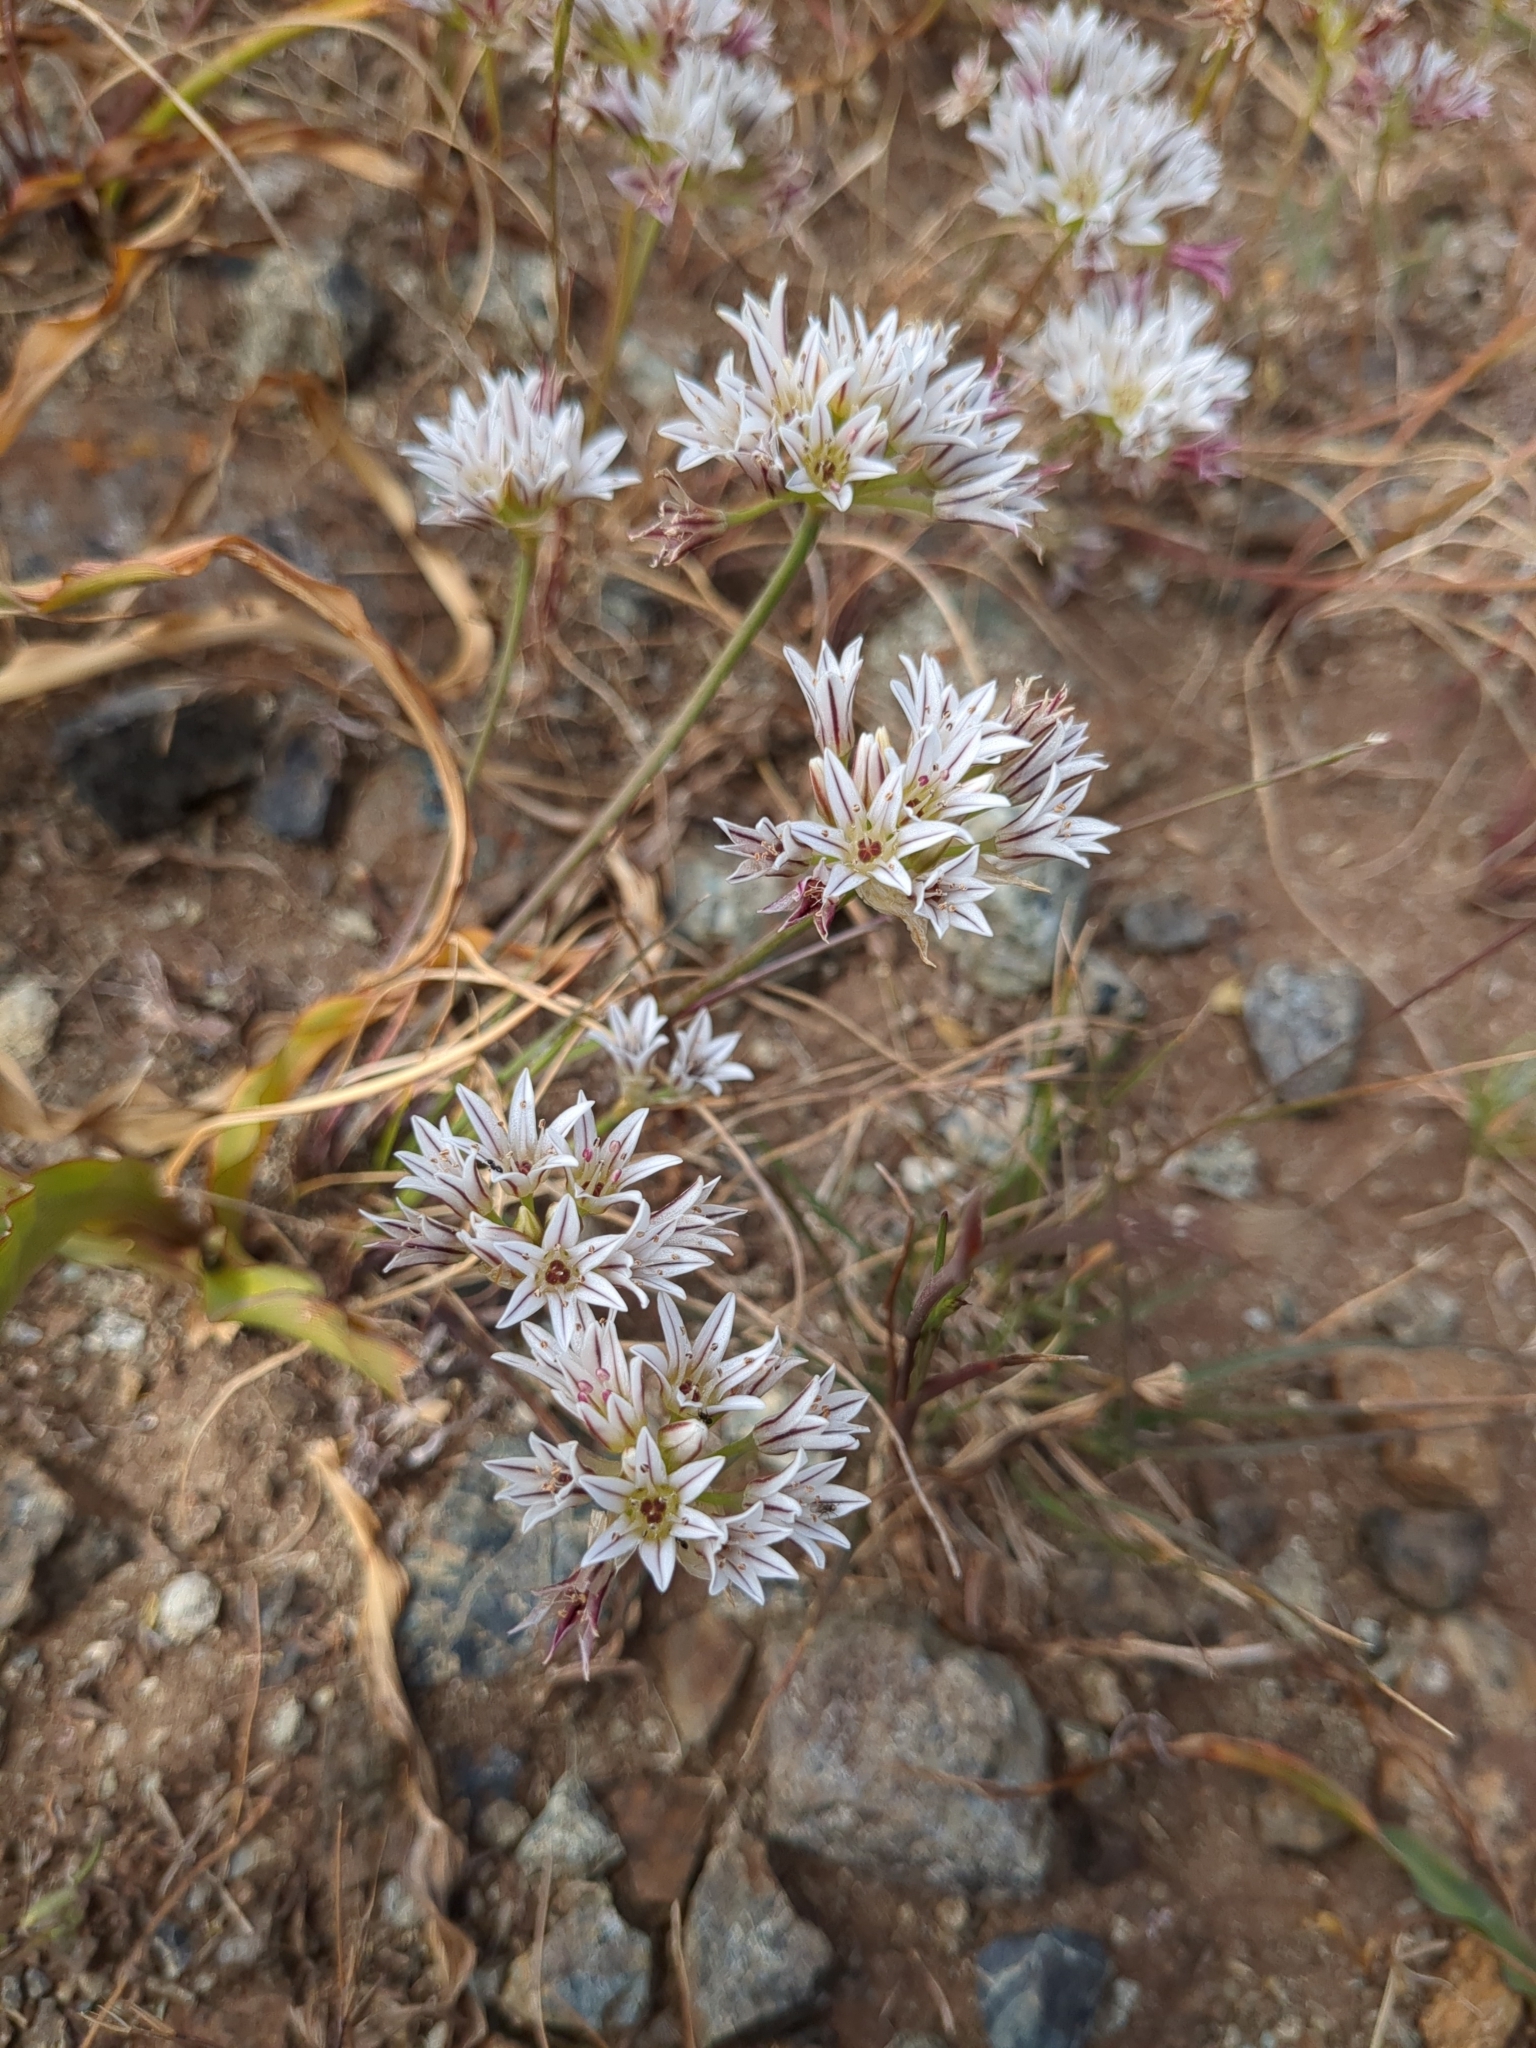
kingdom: Plantae
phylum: Tracheophyta
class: Liliopsida
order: Asparagales
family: Amaryllidaceae
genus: Allium
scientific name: Allium lacunosum
